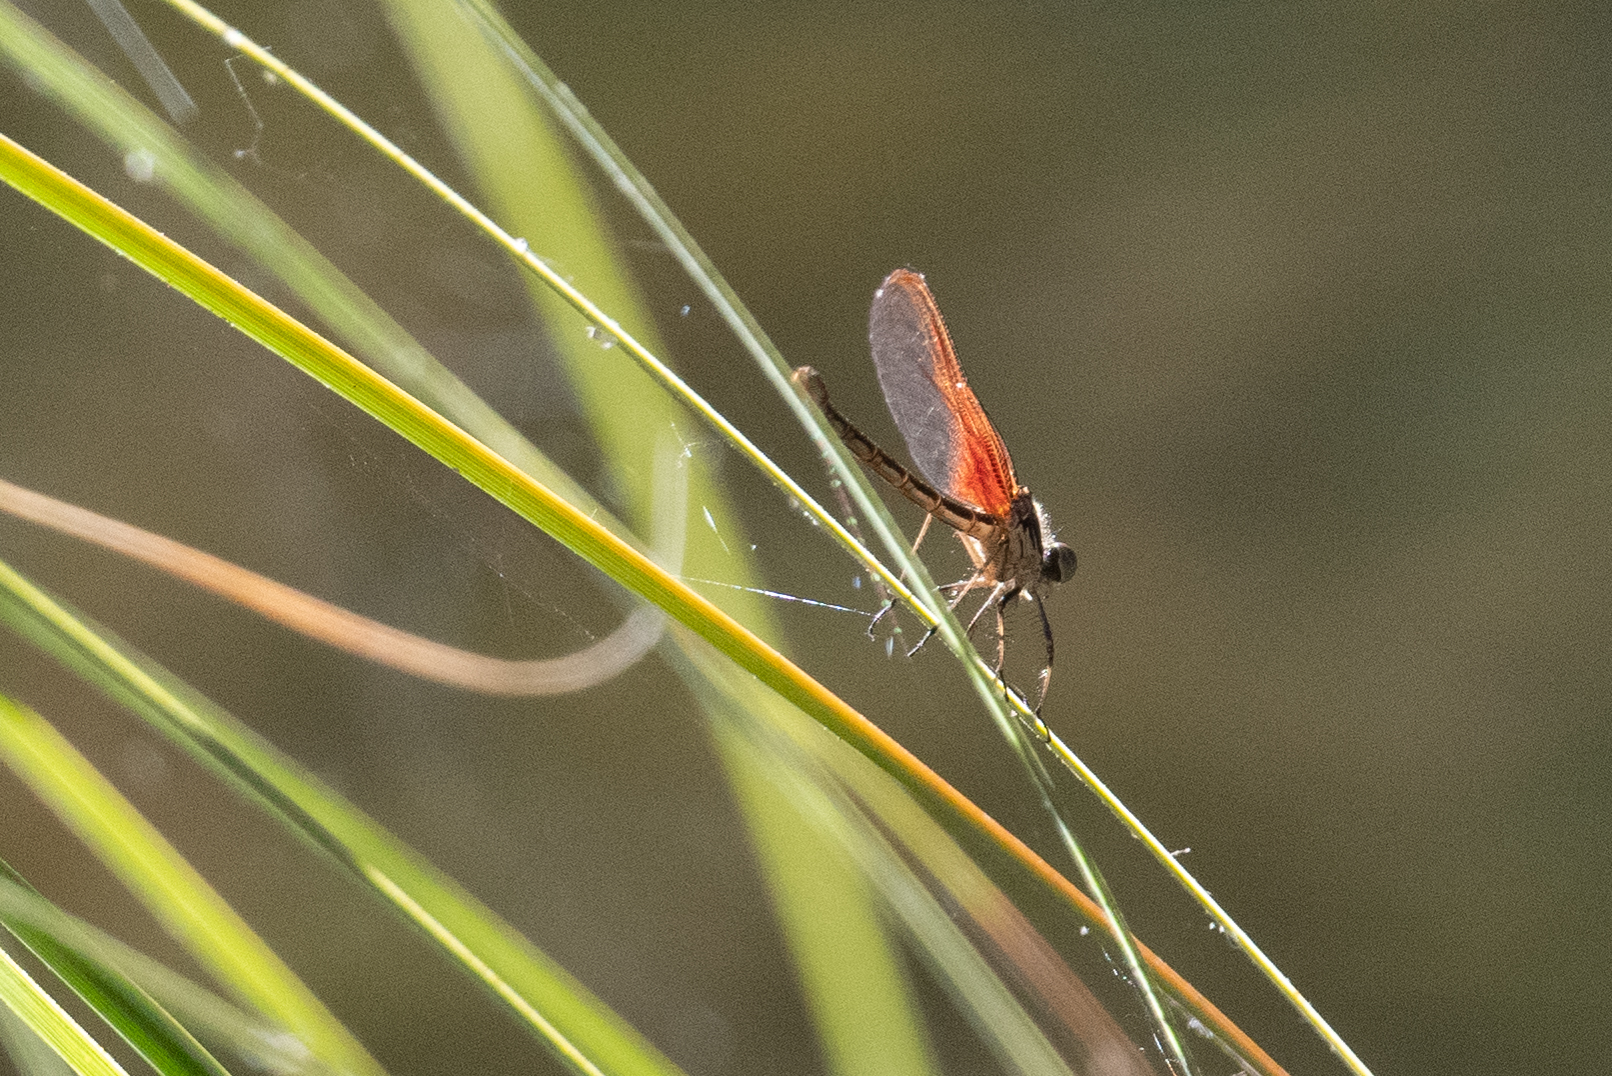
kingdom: Animalia
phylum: Arthropoda
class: Insecta
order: Odonata
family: Calopterygidae
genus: Hetaerina
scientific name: Hetaerina americana
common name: American rubyspot
